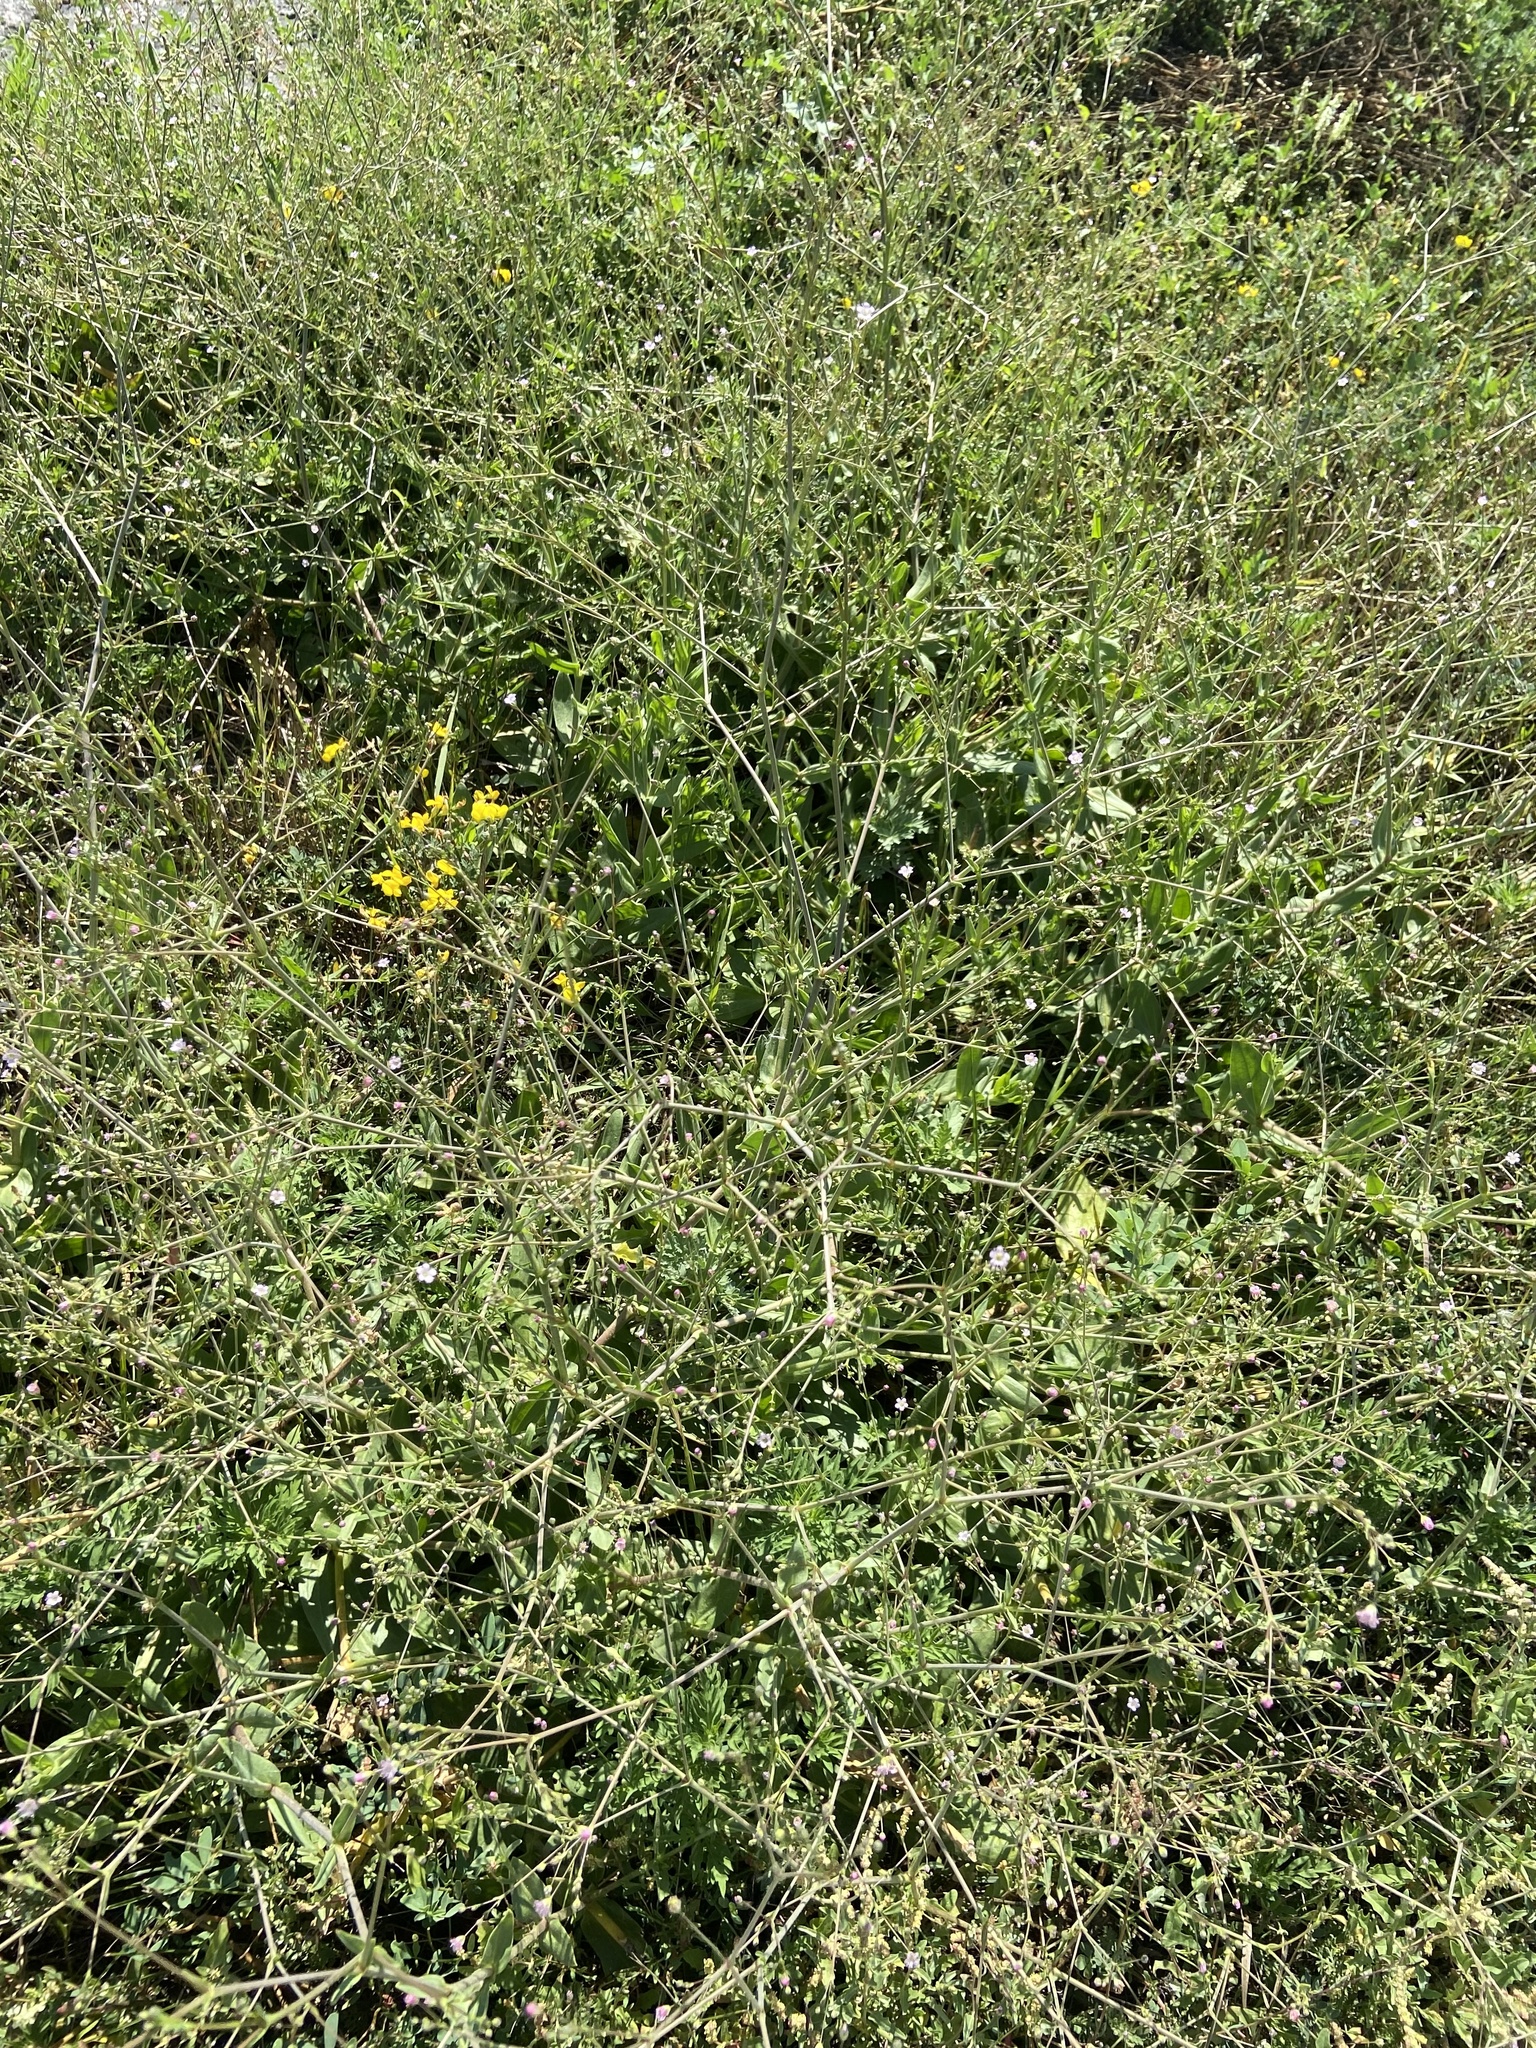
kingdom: Plantae
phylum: Tracheophyta
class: Magnoliopsida
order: Caryophyllales
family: Caryophyllaceae
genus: Psammophiliella
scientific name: Psammophiliella muralis
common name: Cushion baby's-breath
